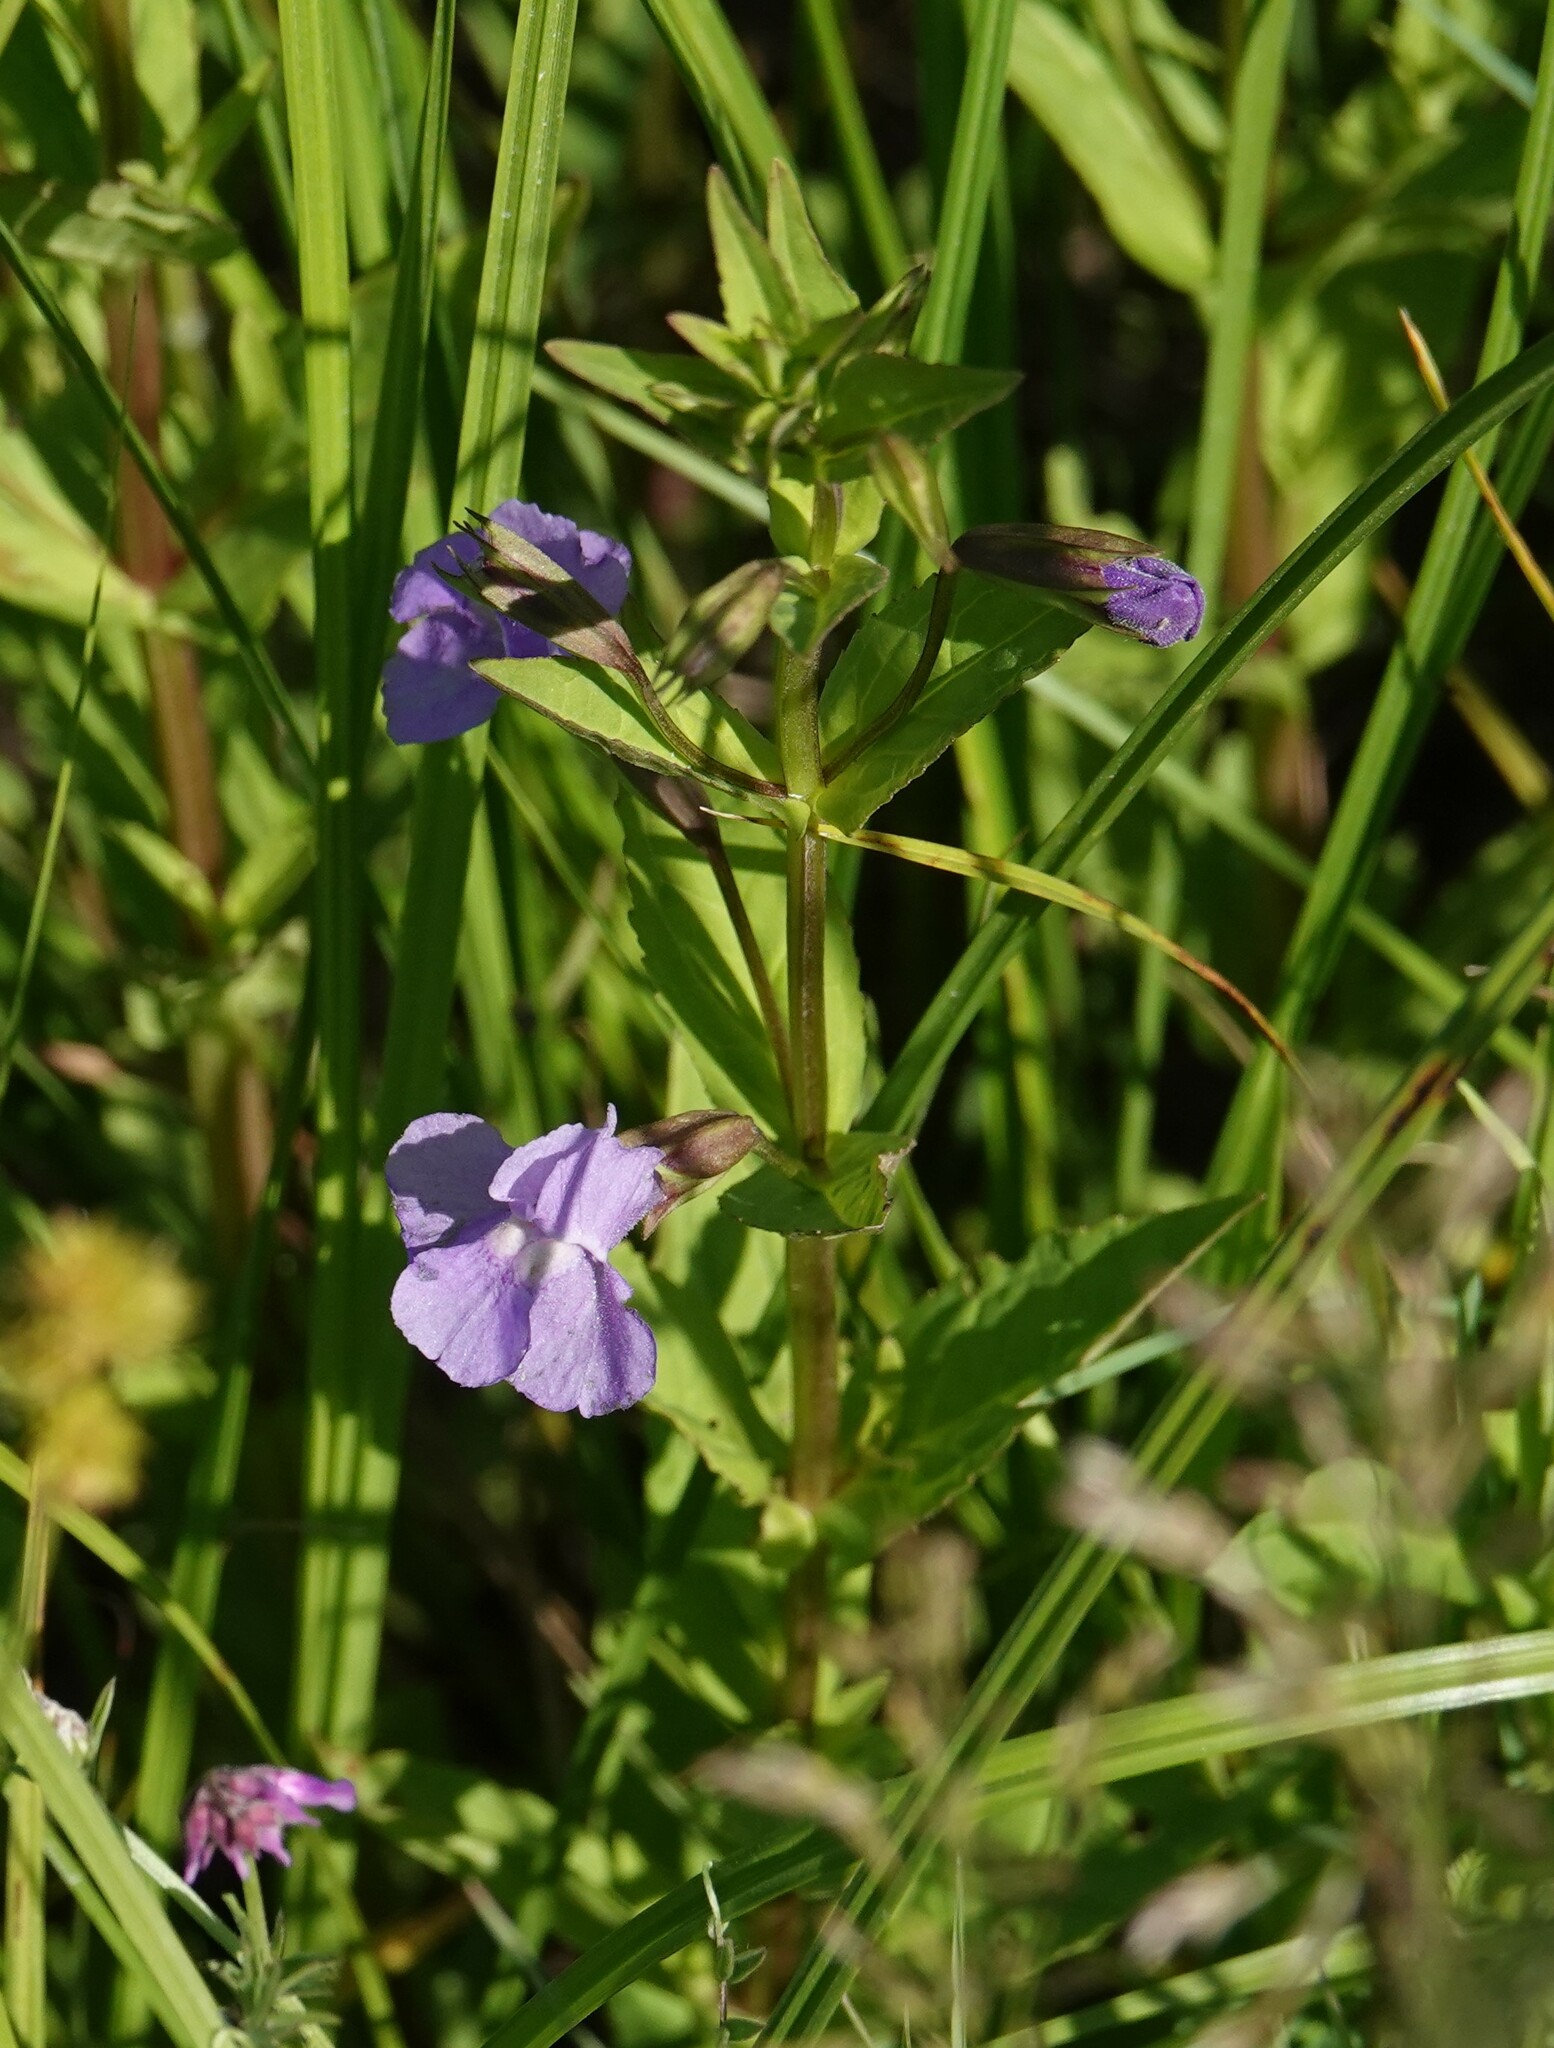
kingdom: Plantae
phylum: Tracheophyta
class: Magnoliopsida
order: Lamiales
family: Phrymaceae
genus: Mimulus
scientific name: Mimulus ringens
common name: Allegheny monkeyflower
